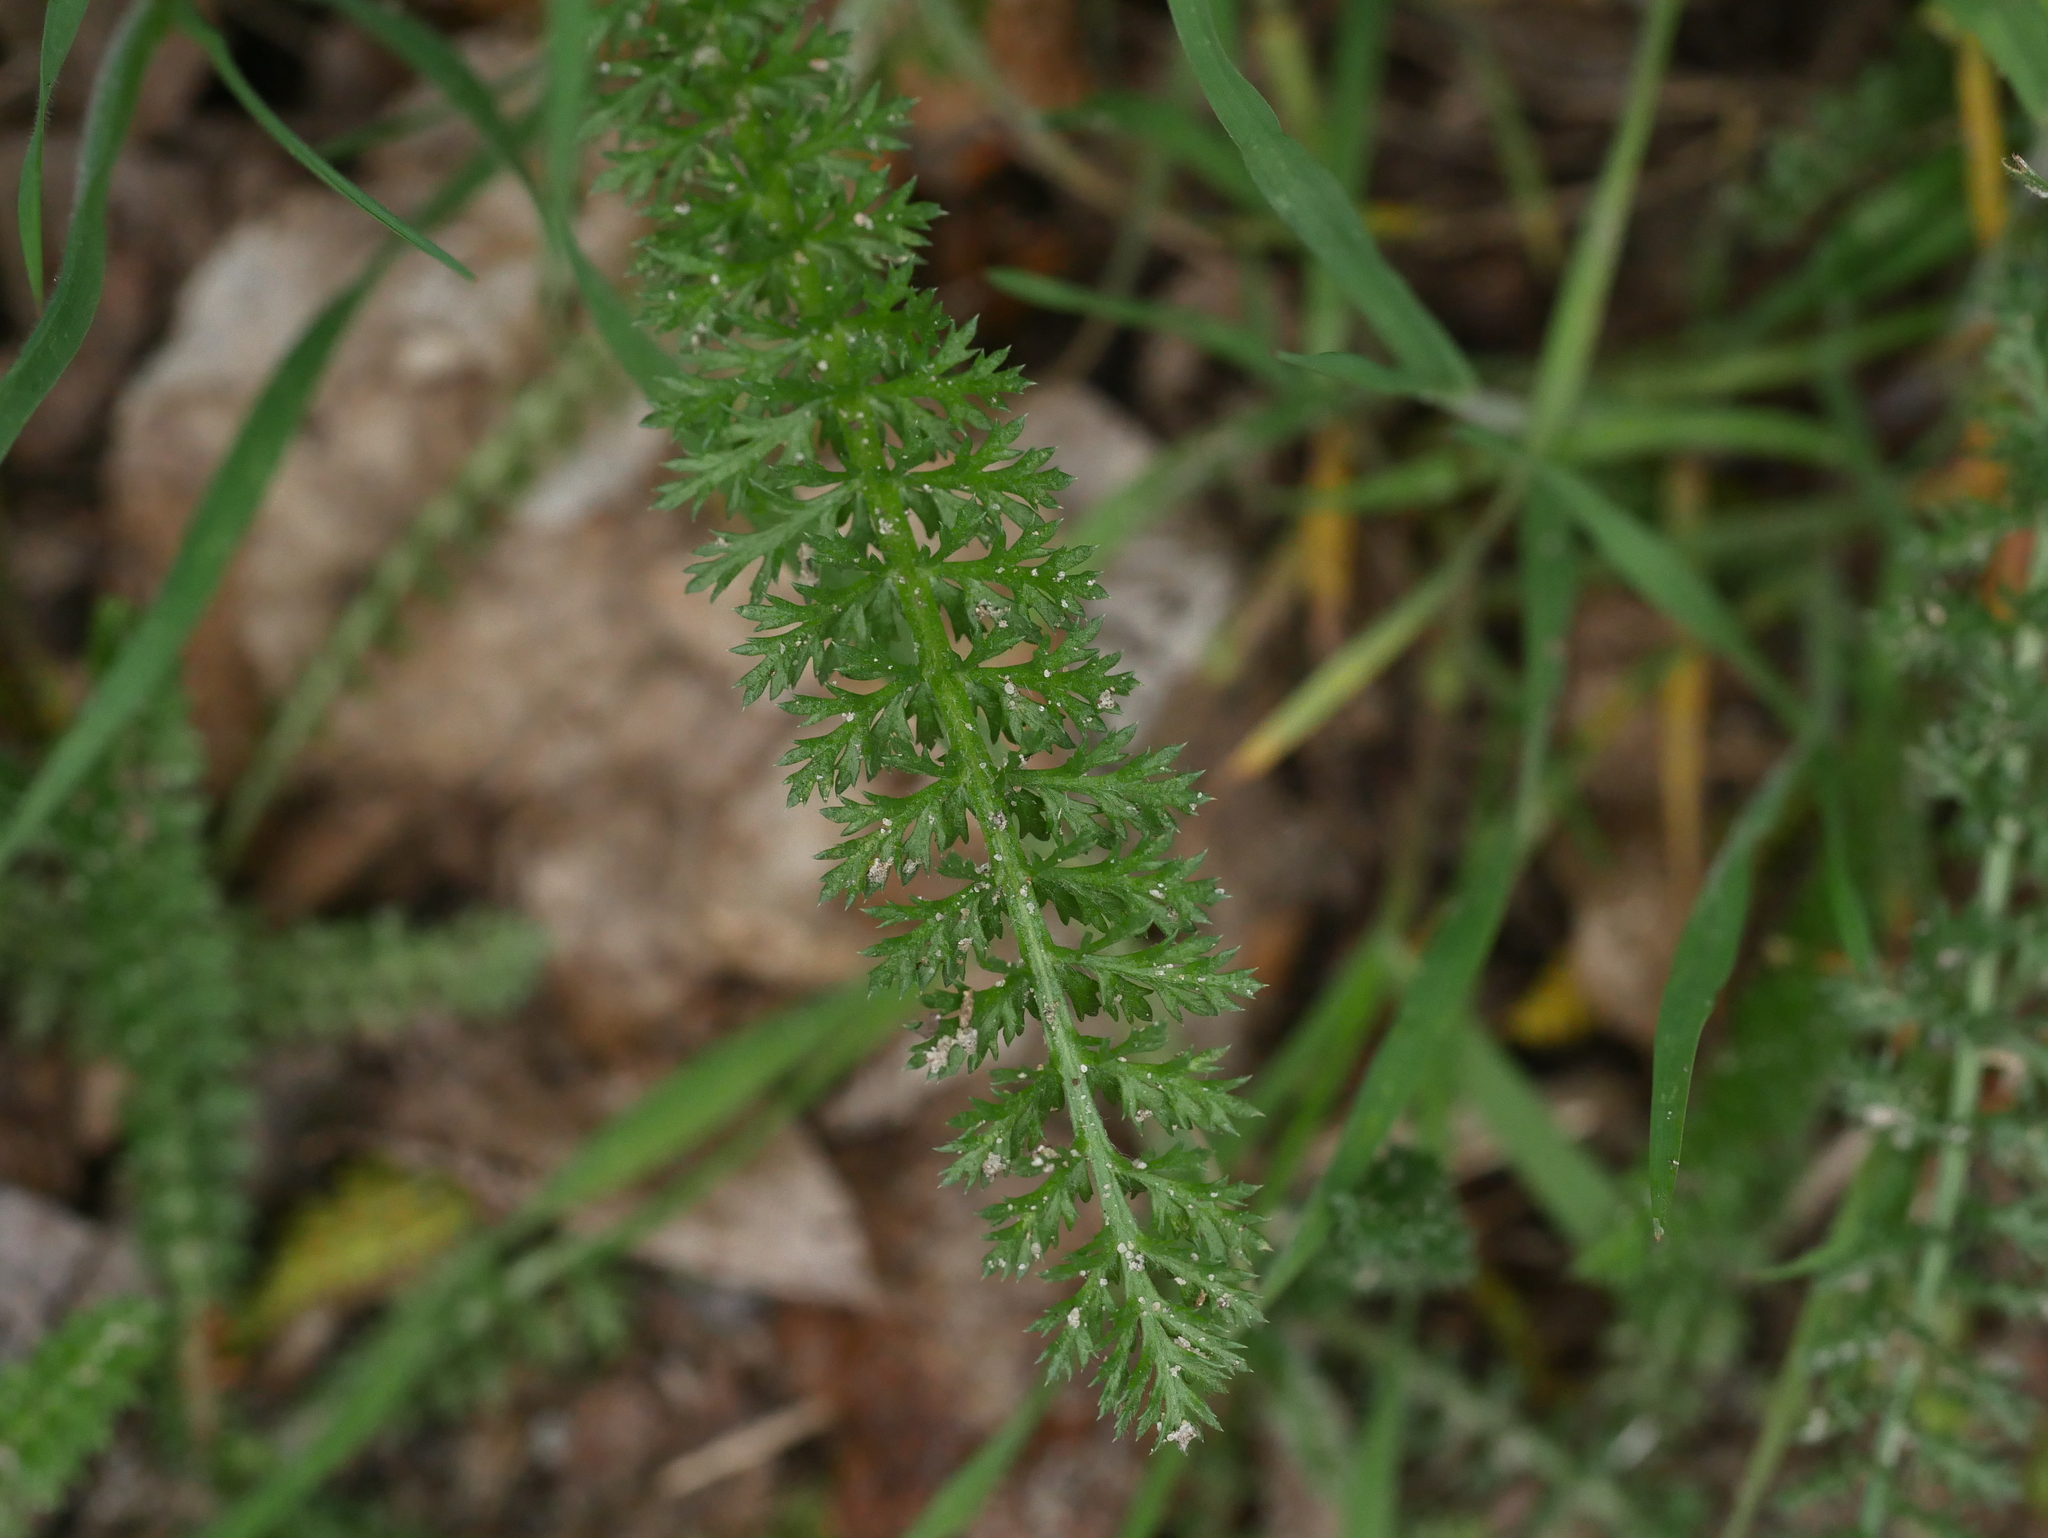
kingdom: Plantae
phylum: Tracheophyta
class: Magnoliopsida
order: Asterales
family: Asteraceae
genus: Achillea
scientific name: Achillea millefolium
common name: Yarrow
